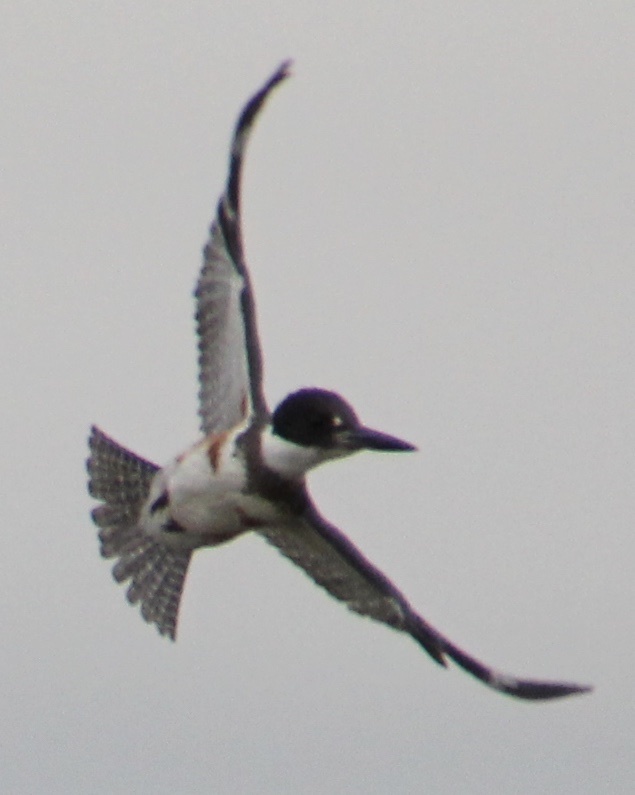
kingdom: Animalia
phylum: Chordata
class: Aves
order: Coraciiformes
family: Alcedinidae
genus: Megaceryle
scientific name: Megaceryle alcyon
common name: Belted kingfisher
